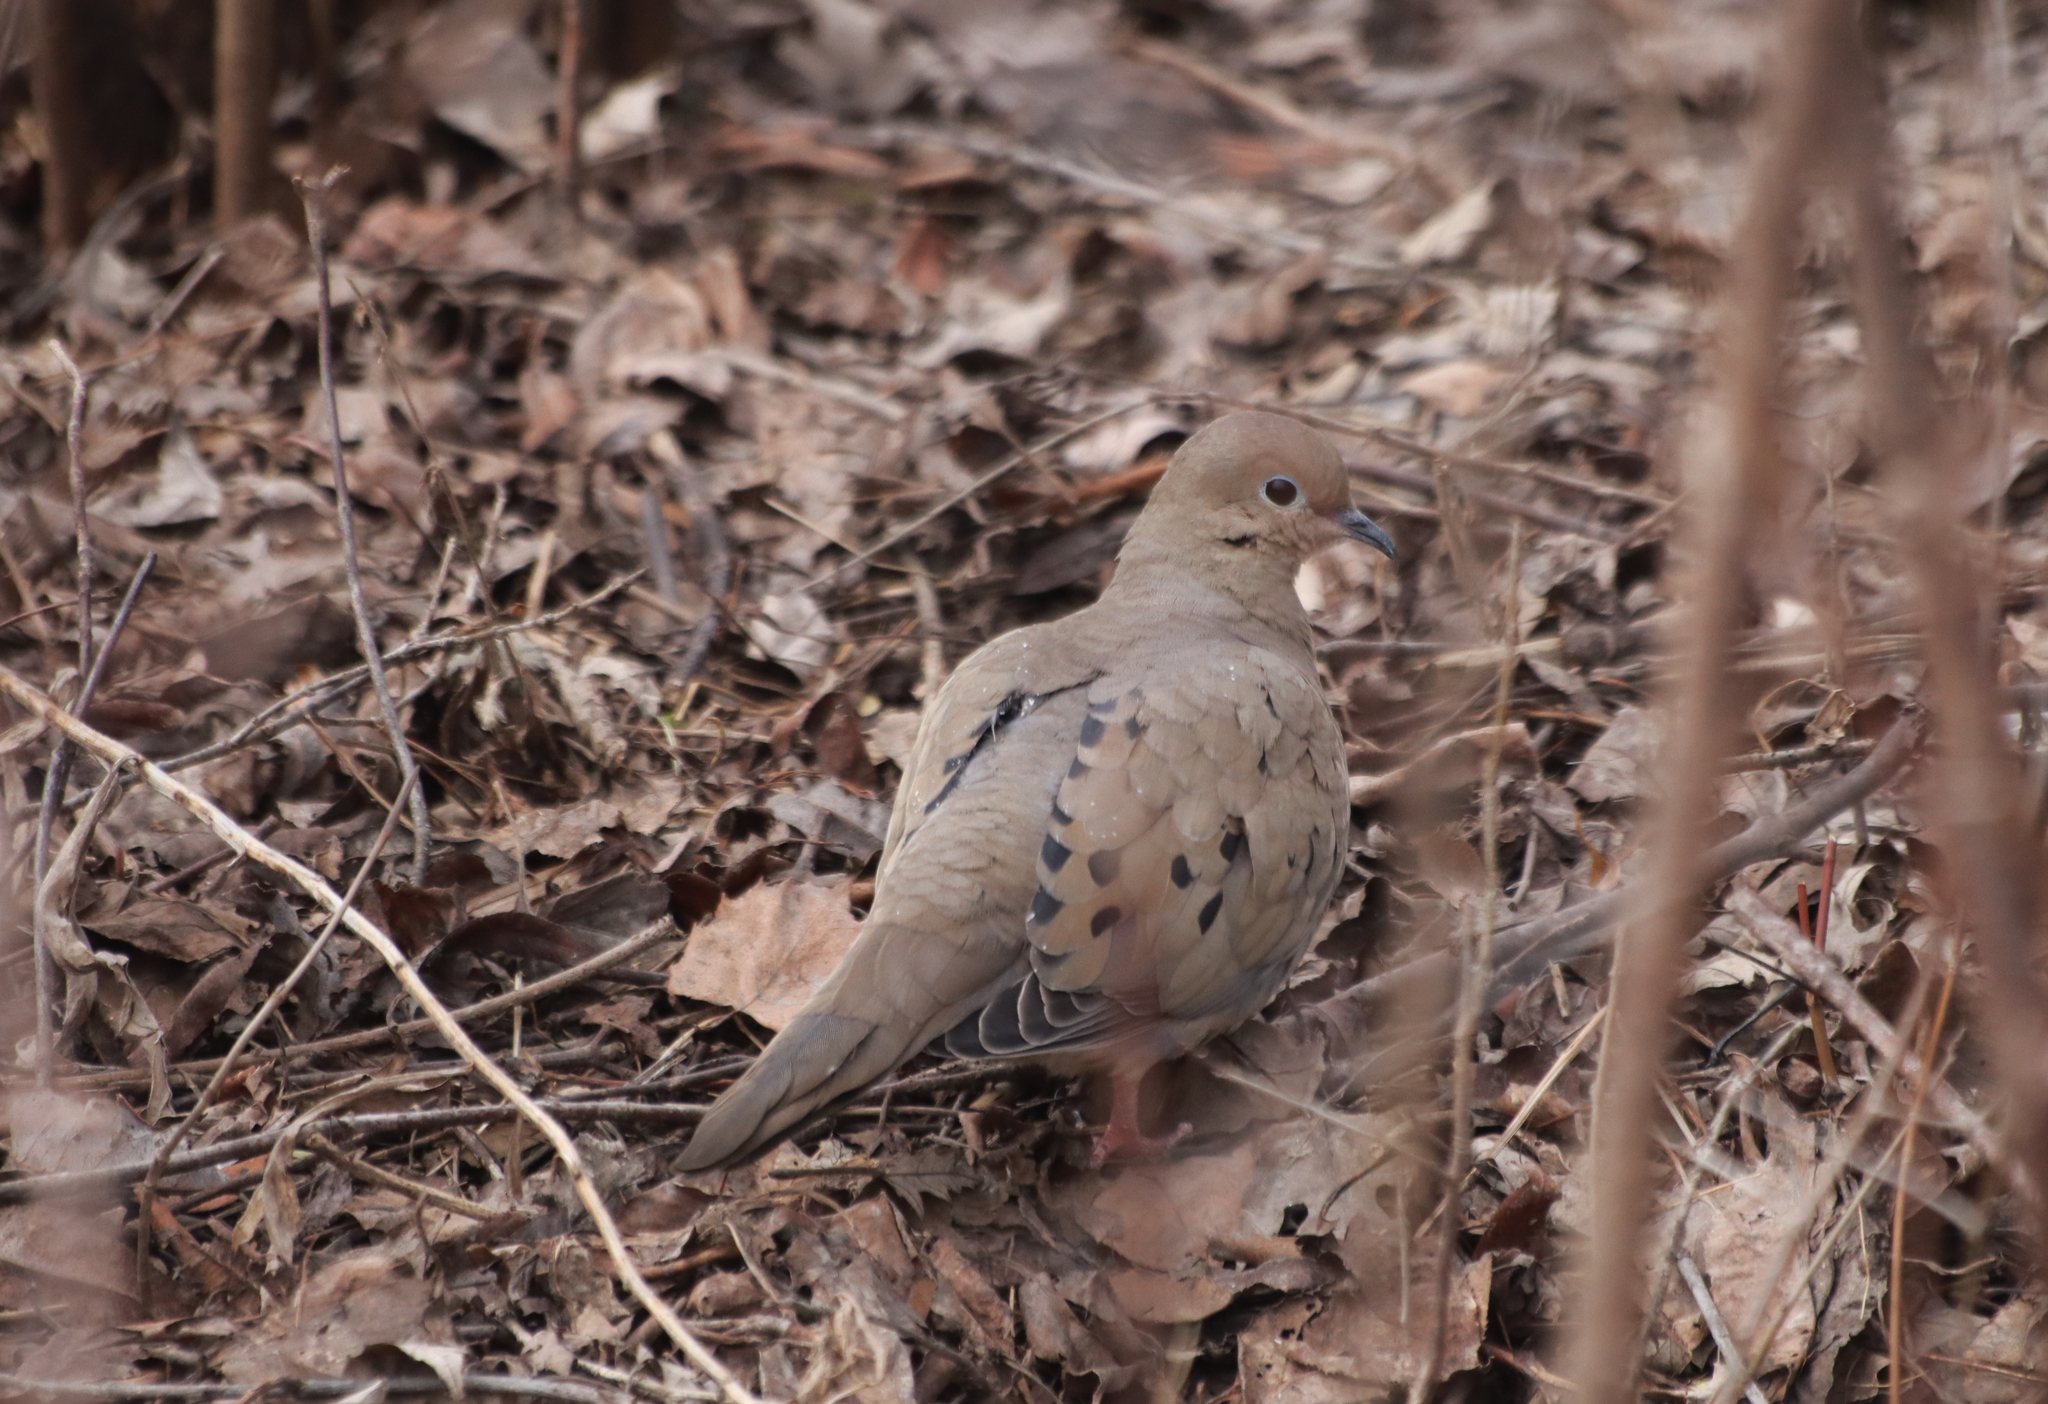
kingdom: Animalia
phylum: Chordata
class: Aves
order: Columbiformes
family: Columbidae
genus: Zenaida
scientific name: Zenaida macroura
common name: Mourning dove
